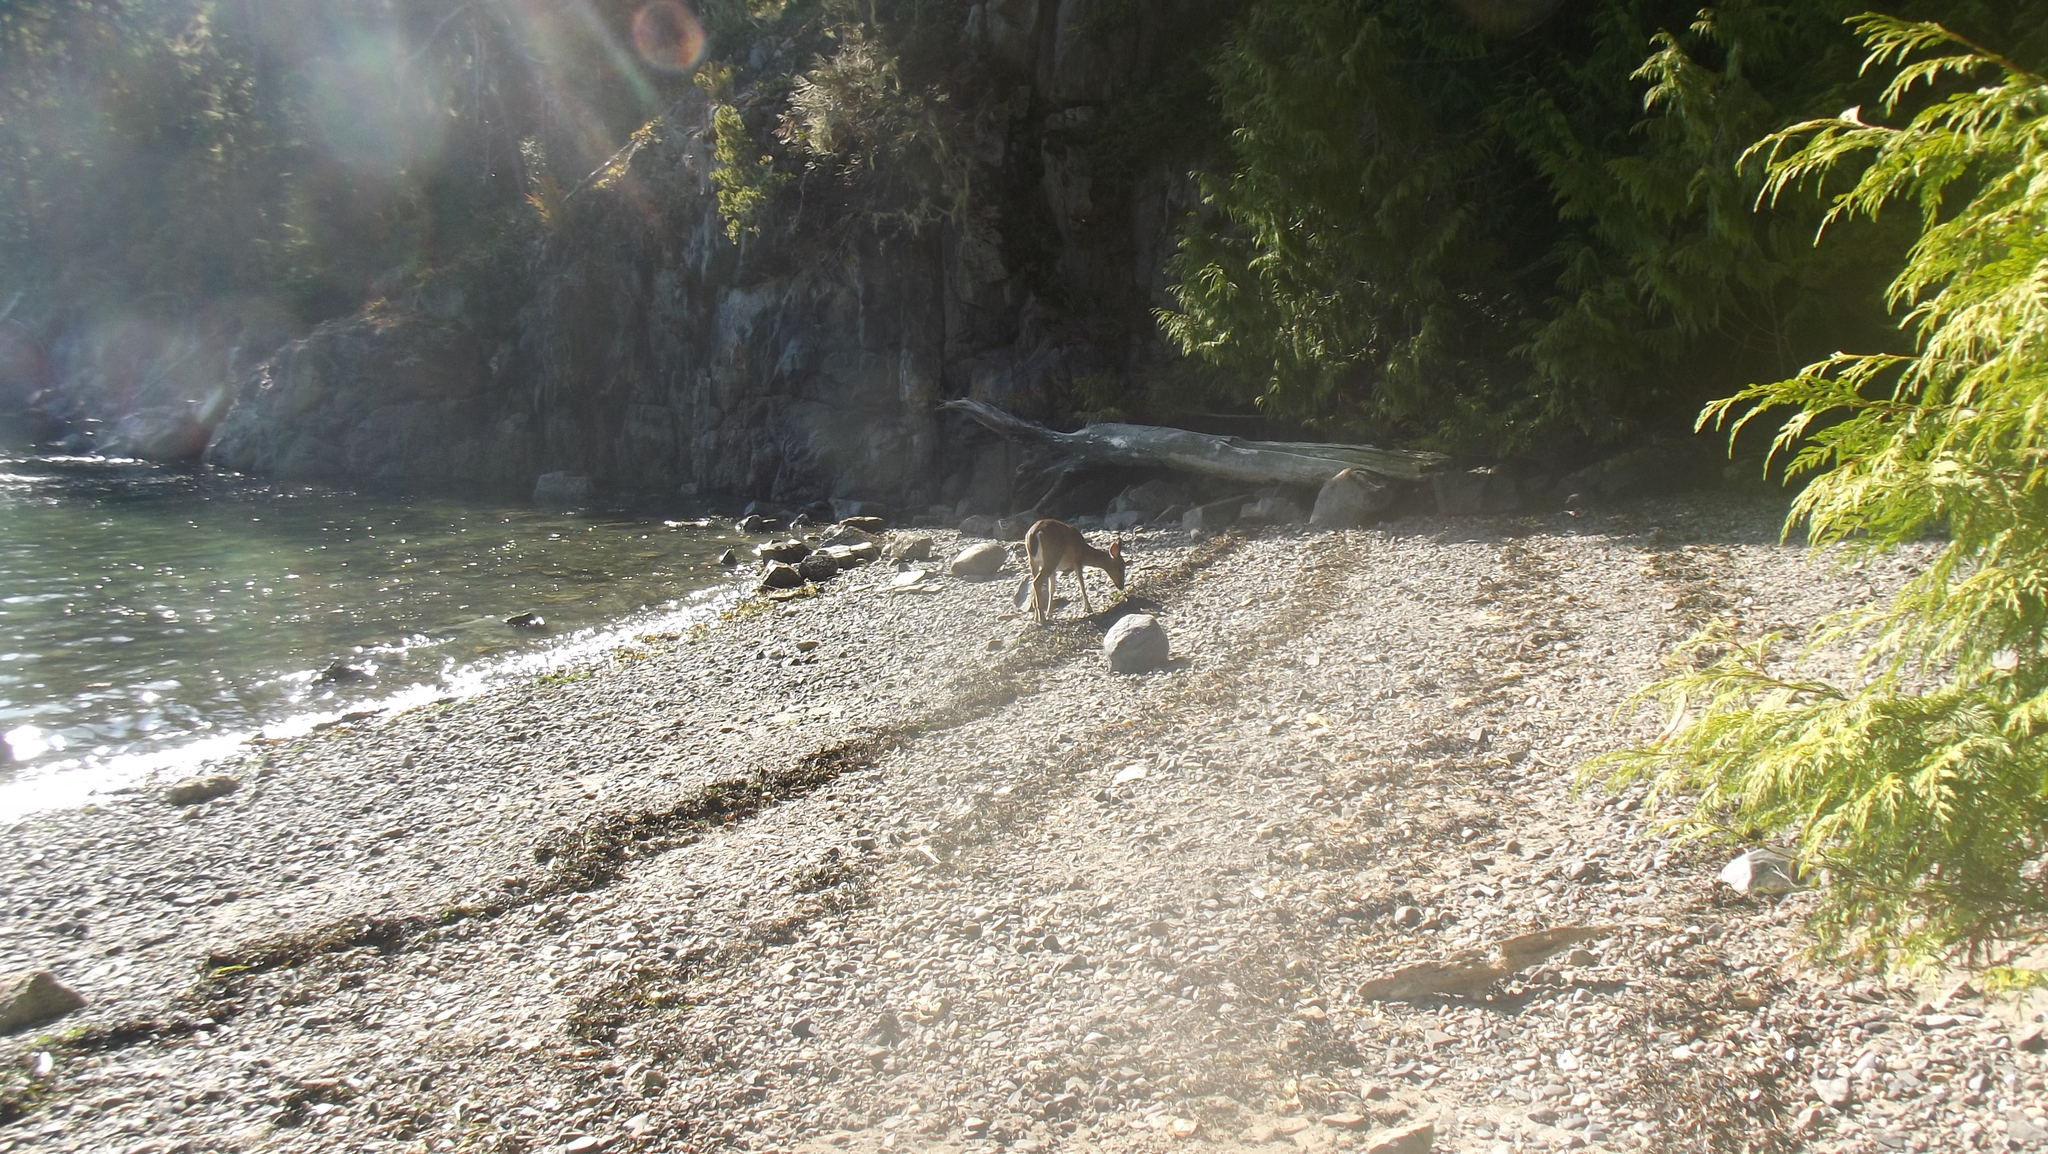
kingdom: Animalia
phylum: Chordata
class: Mammalia
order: Artiodactyla
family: Cervidae
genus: Odocoileus
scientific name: Odocoileus hemionus
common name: Mule deer
